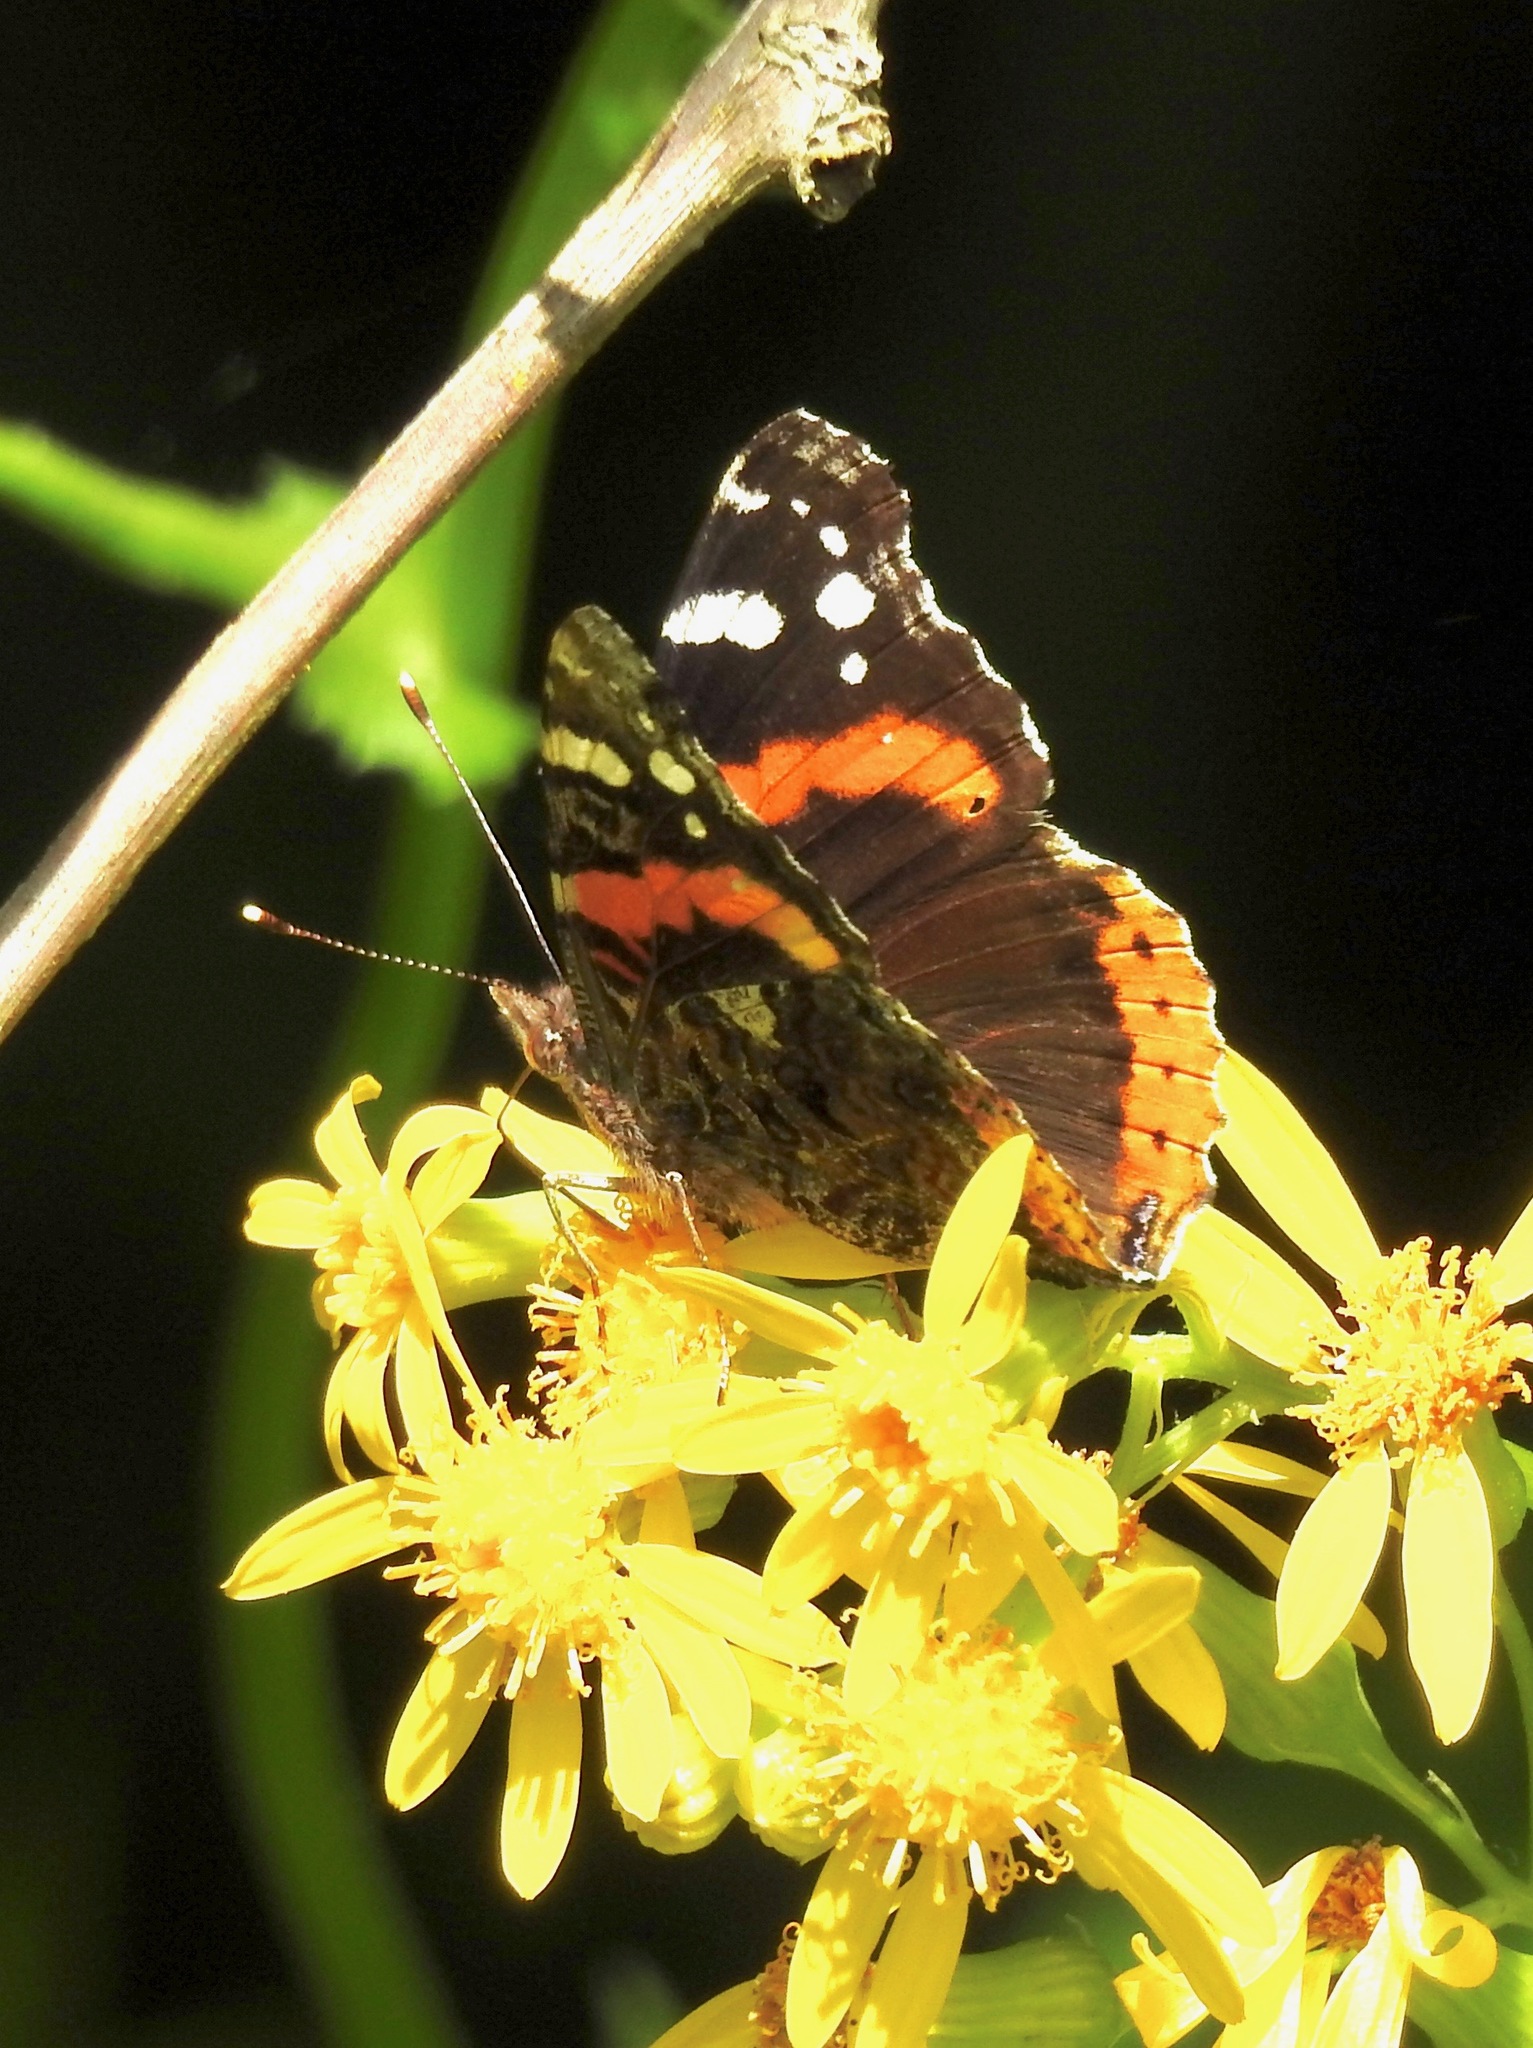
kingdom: Animalia
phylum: Arthropoda
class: Insecta
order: Lepidoptera
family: Nymphalidae
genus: Vanessa
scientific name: Vanessa atalanta
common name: Red admiral
